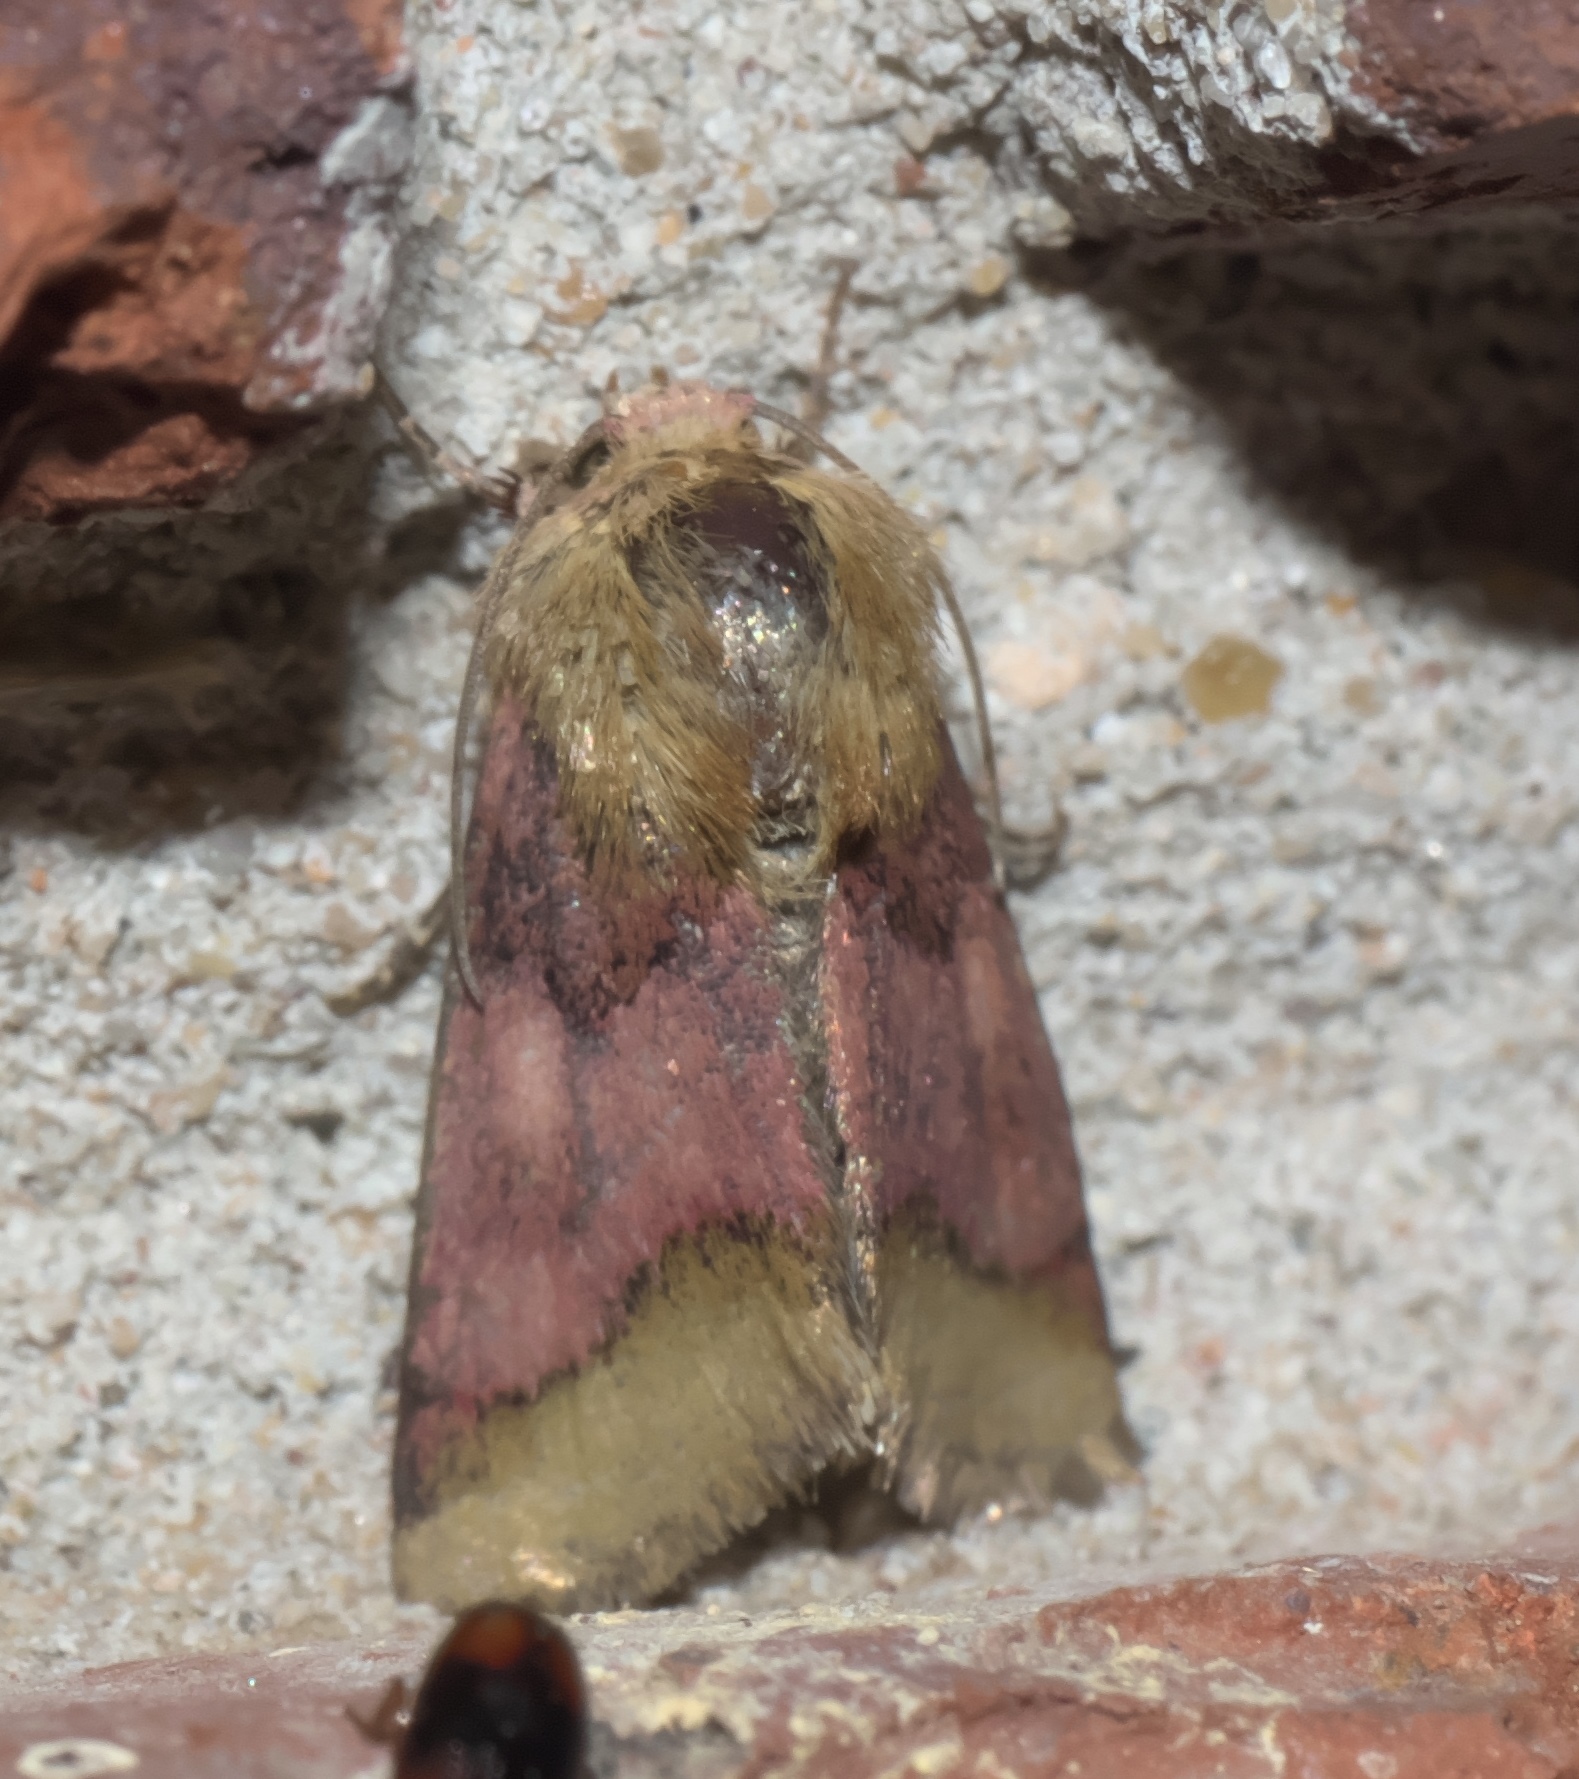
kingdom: Animalia
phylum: Arthropoda
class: Insecta
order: Lepidoptera
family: Noctuidae
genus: Schinia
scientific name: Schinia bina
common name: Bina flower moth
